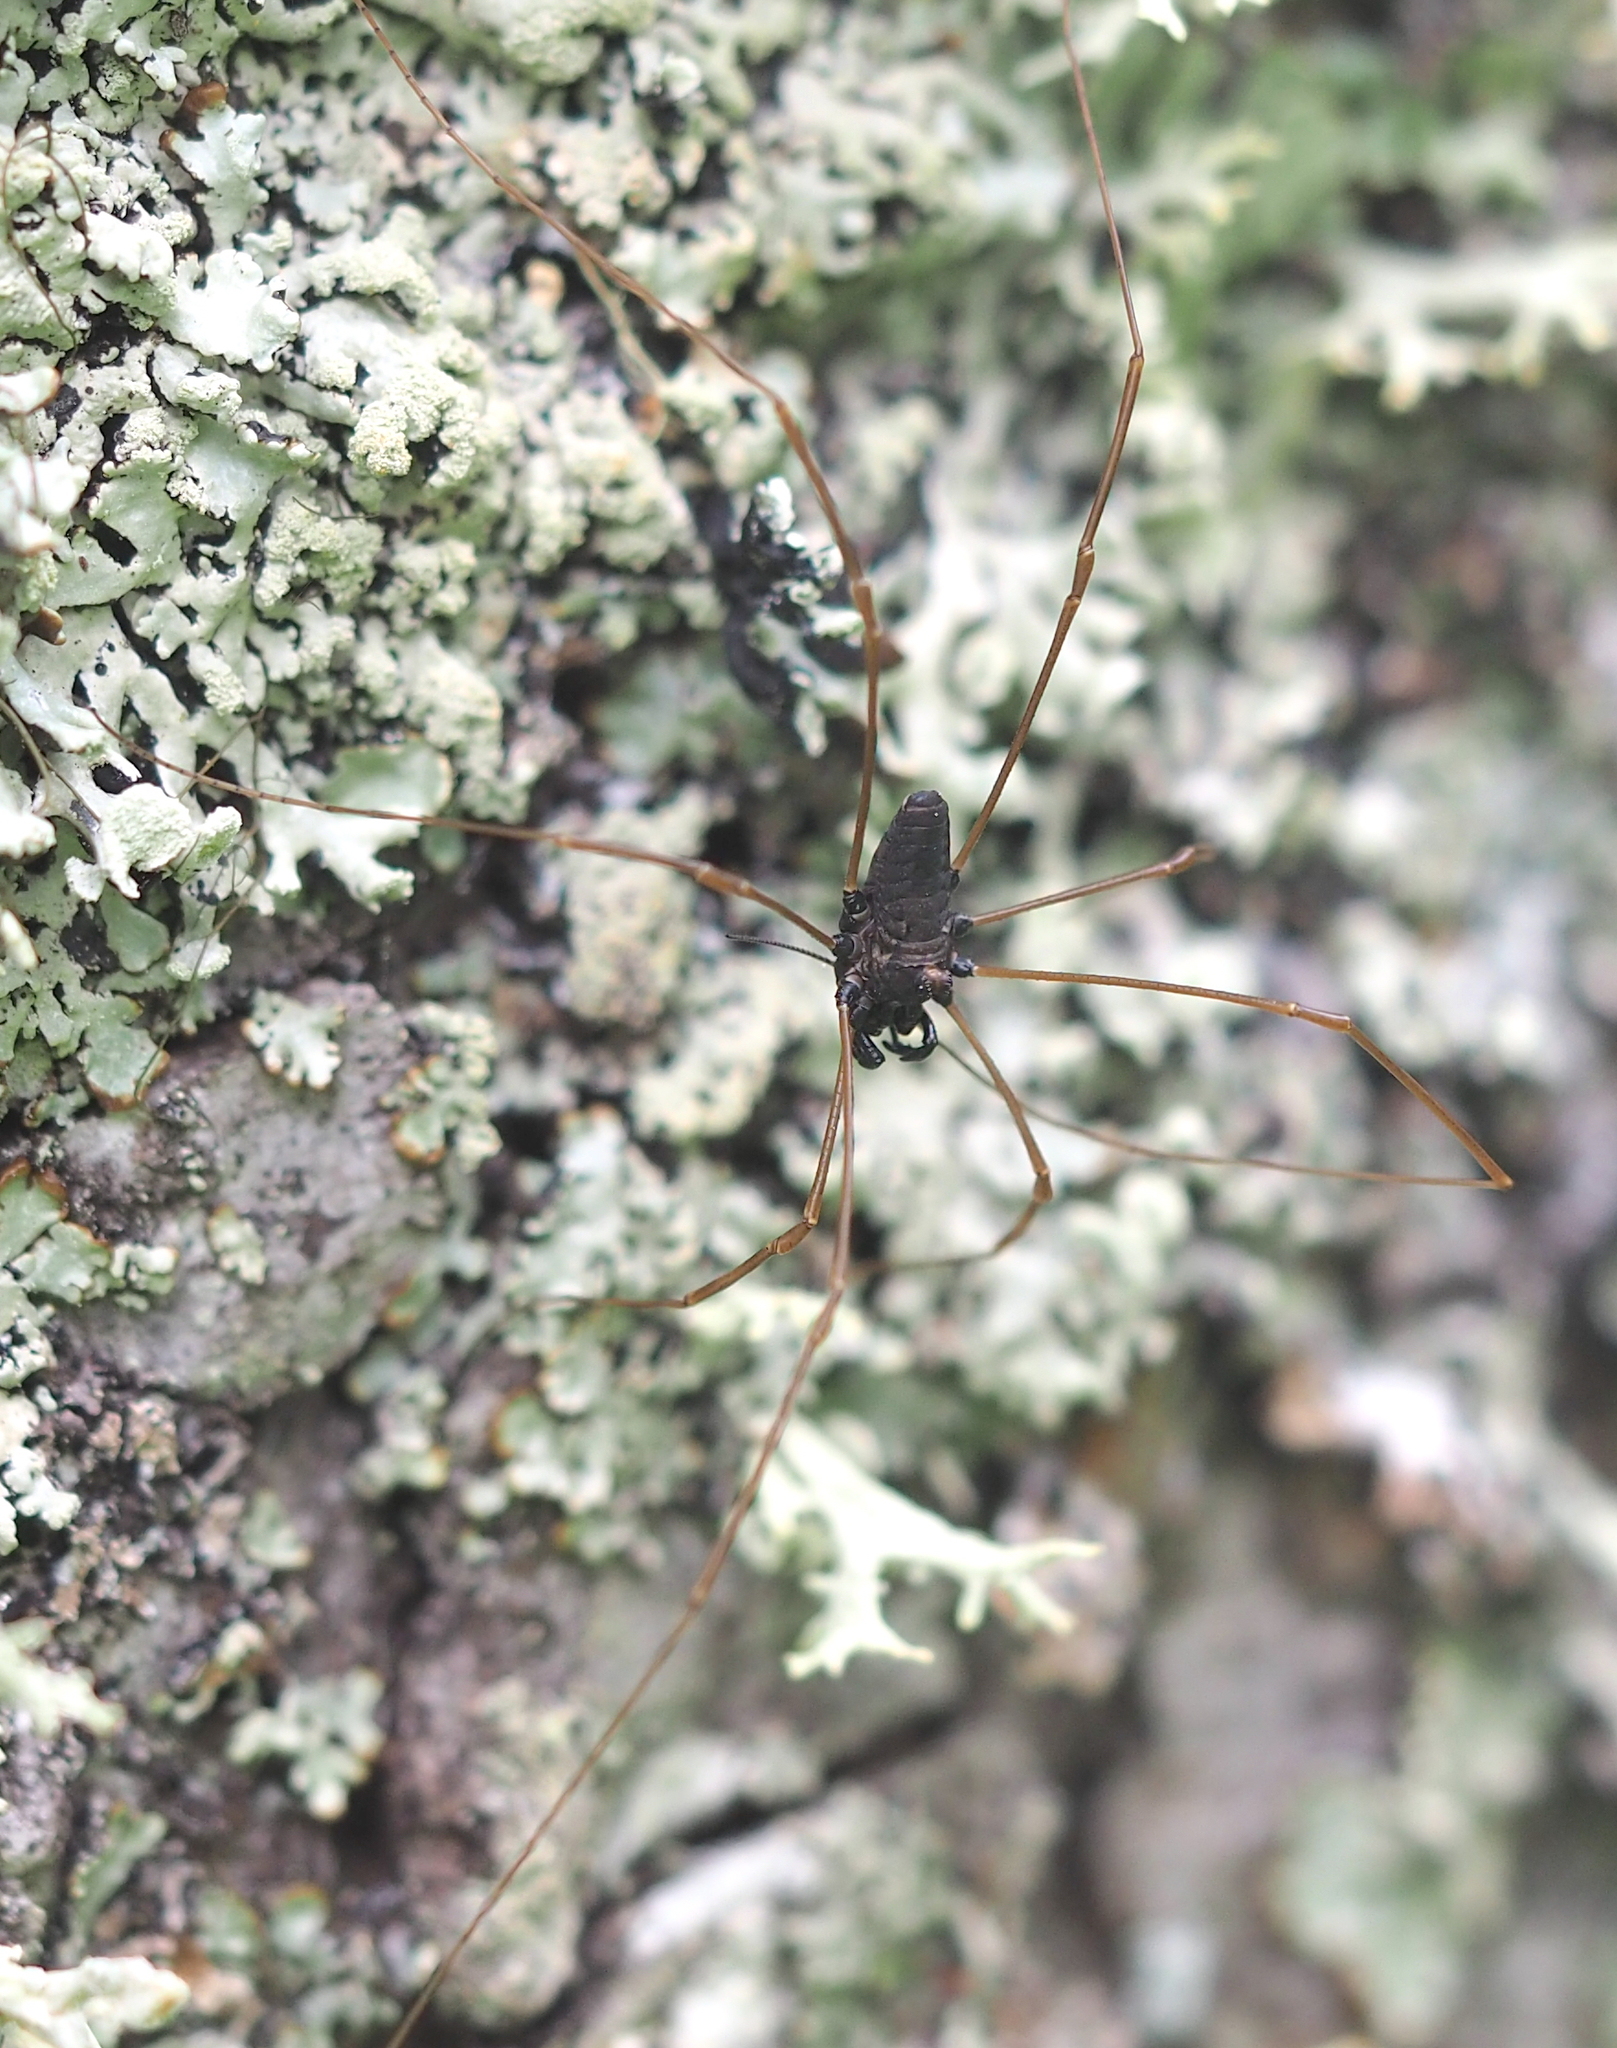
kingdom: Animalia
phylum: Arthropoda
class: Arachnida
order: Opiliones
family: Phalangiidae
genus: Platybunus
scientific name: Platybunus pinetorum
